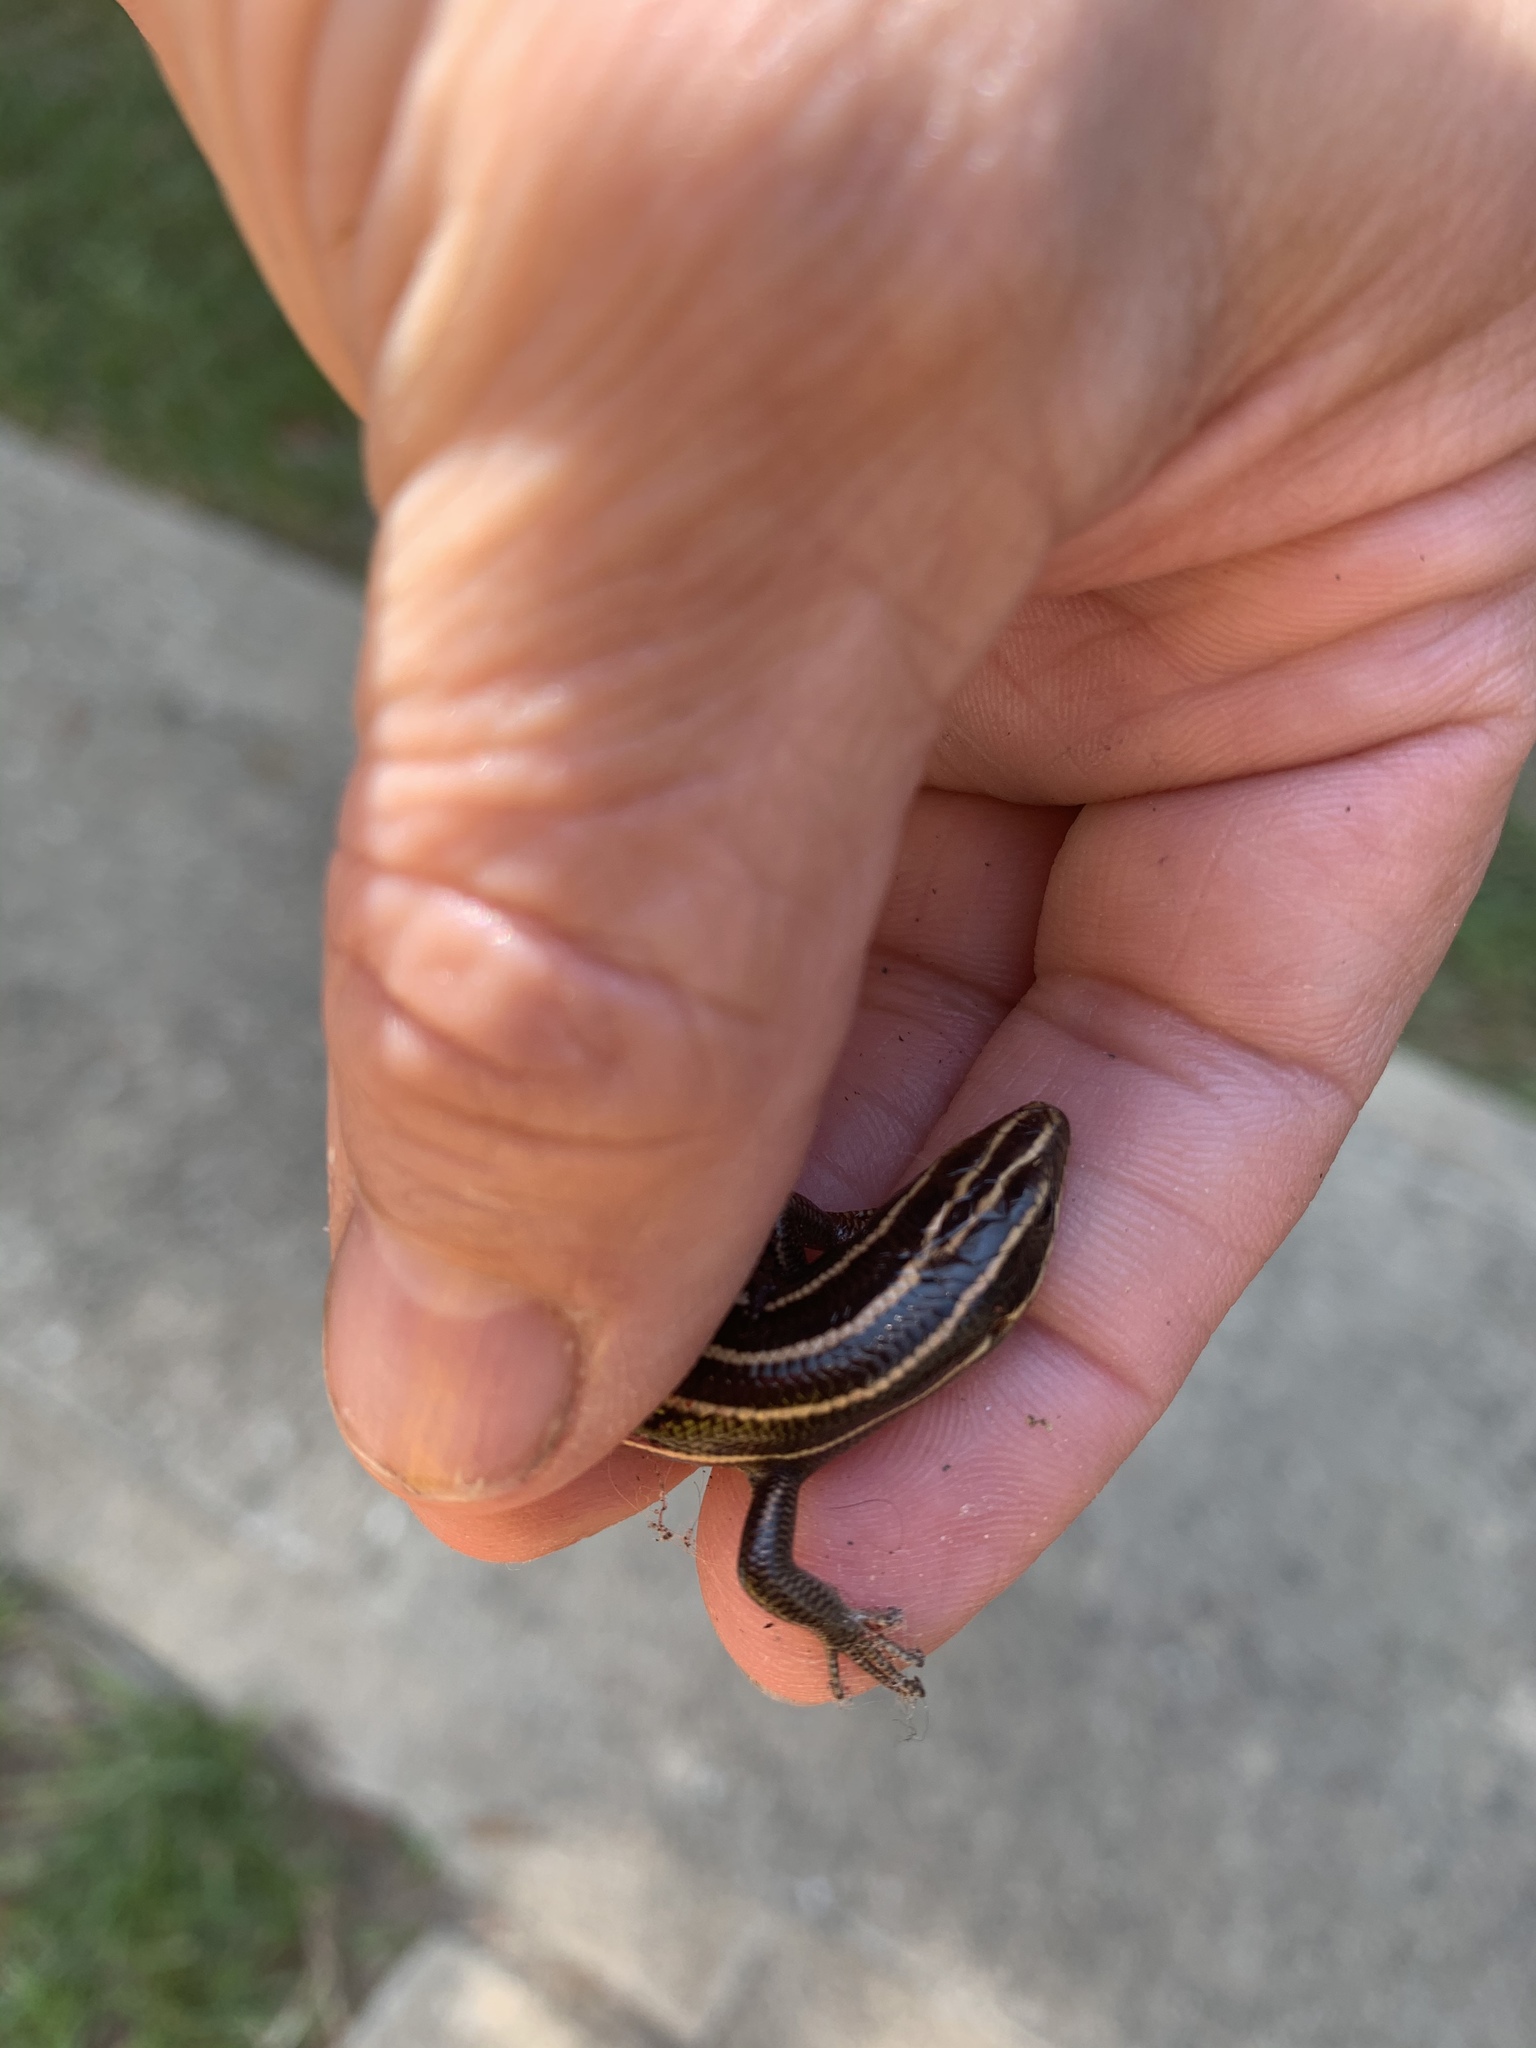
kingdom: Animalia
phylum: Chordata
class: Squamata
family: Scincidae
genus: Plestiodon
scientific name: Plestiodon fasciatus
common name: Five-lined skink
